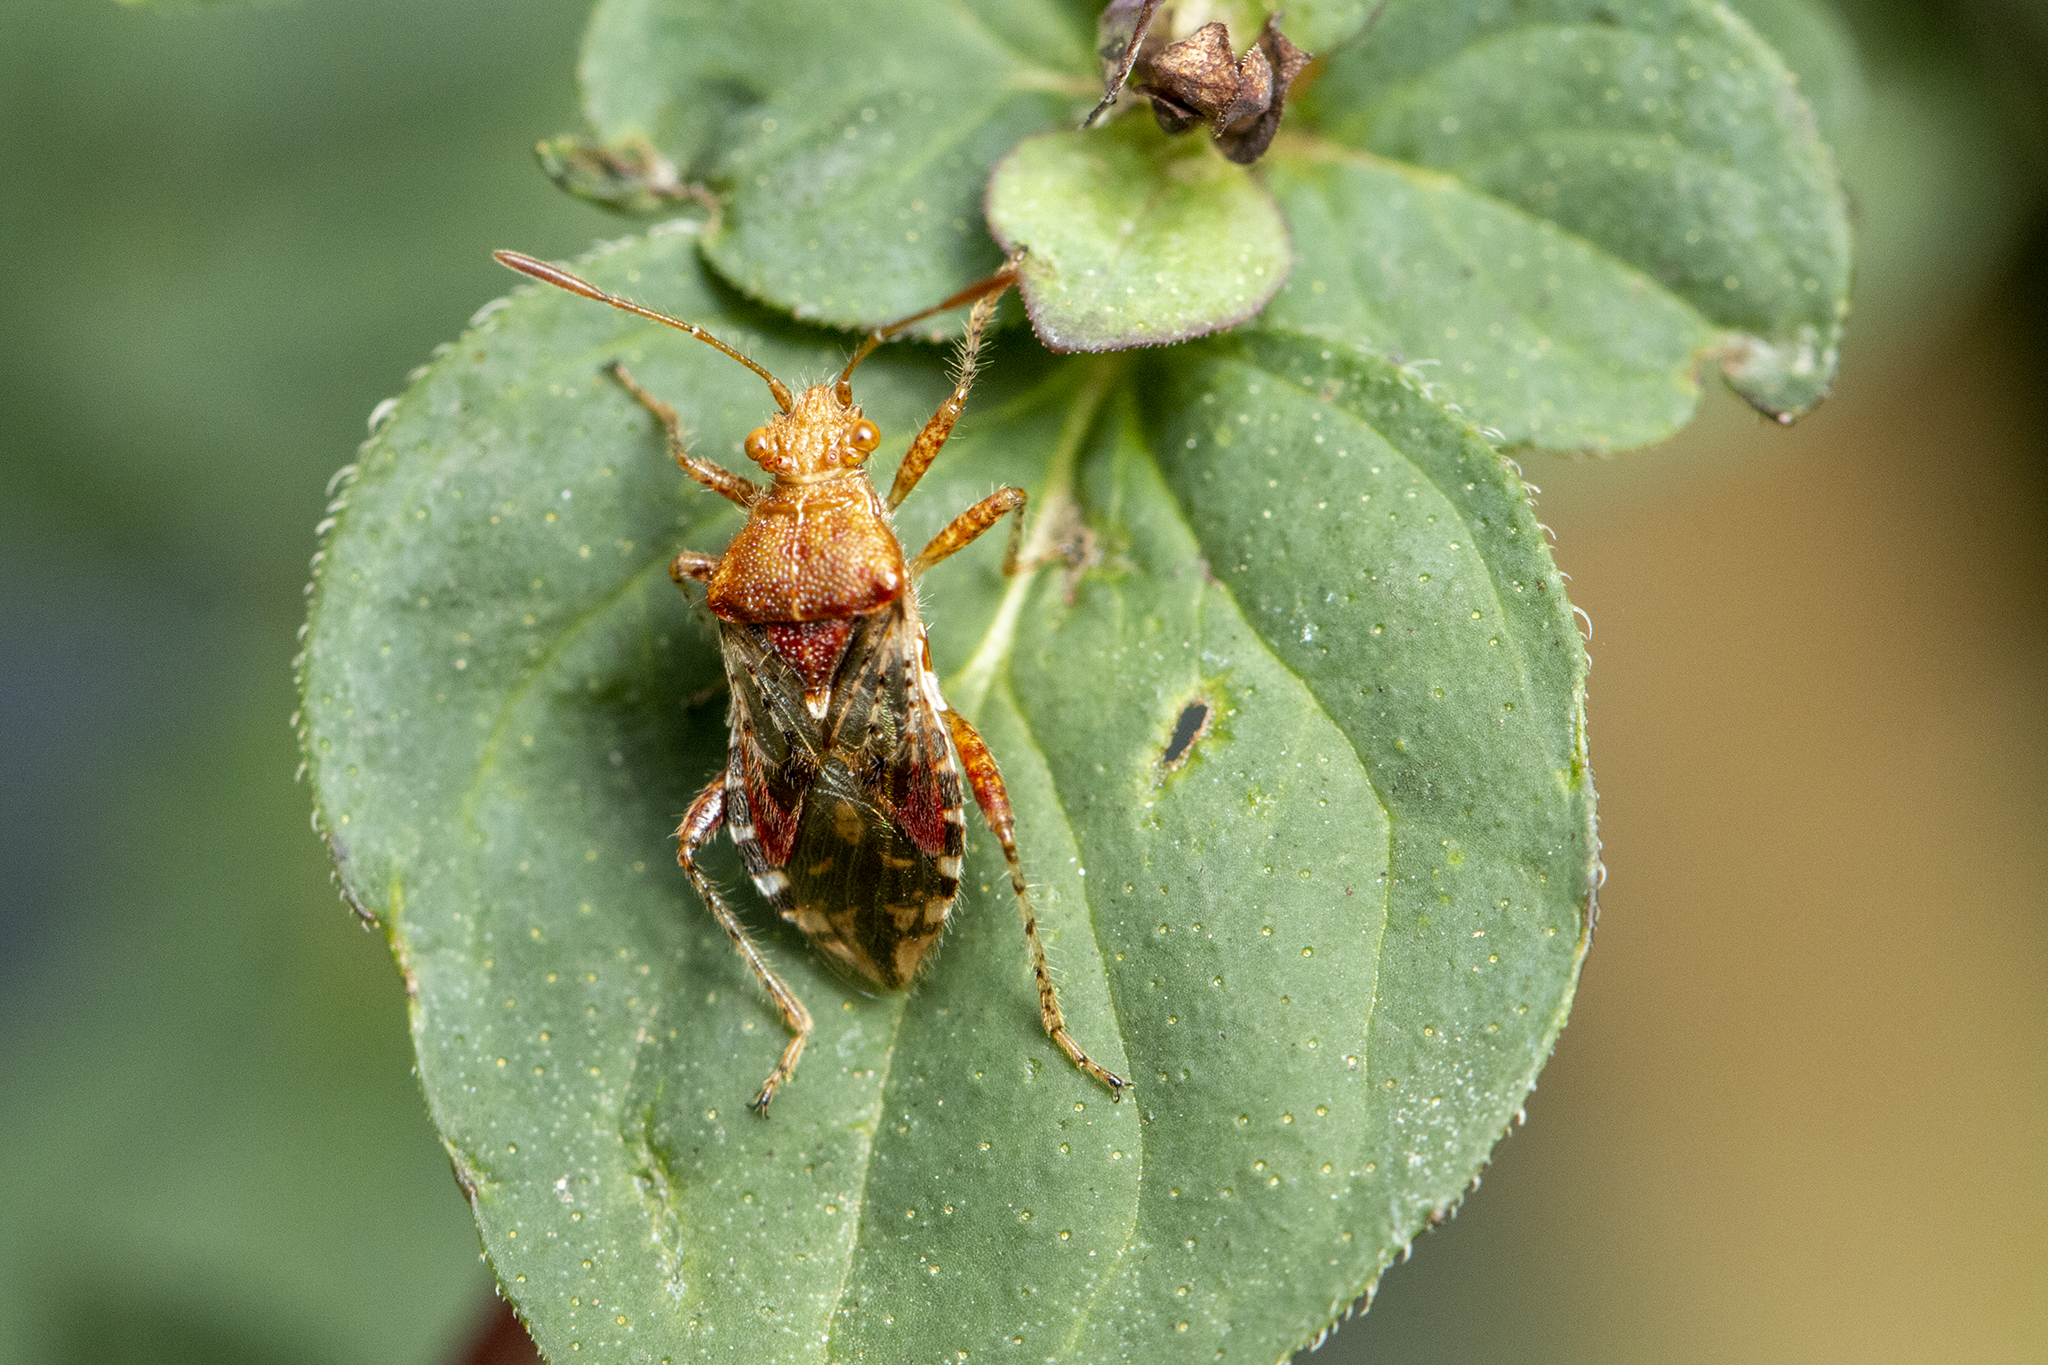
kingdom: Animalia
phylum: Arthropoda
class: Insecta
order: Hemiptera
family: Rhopalidae
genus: Rhopalus
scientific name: Rhopalus subrufus
